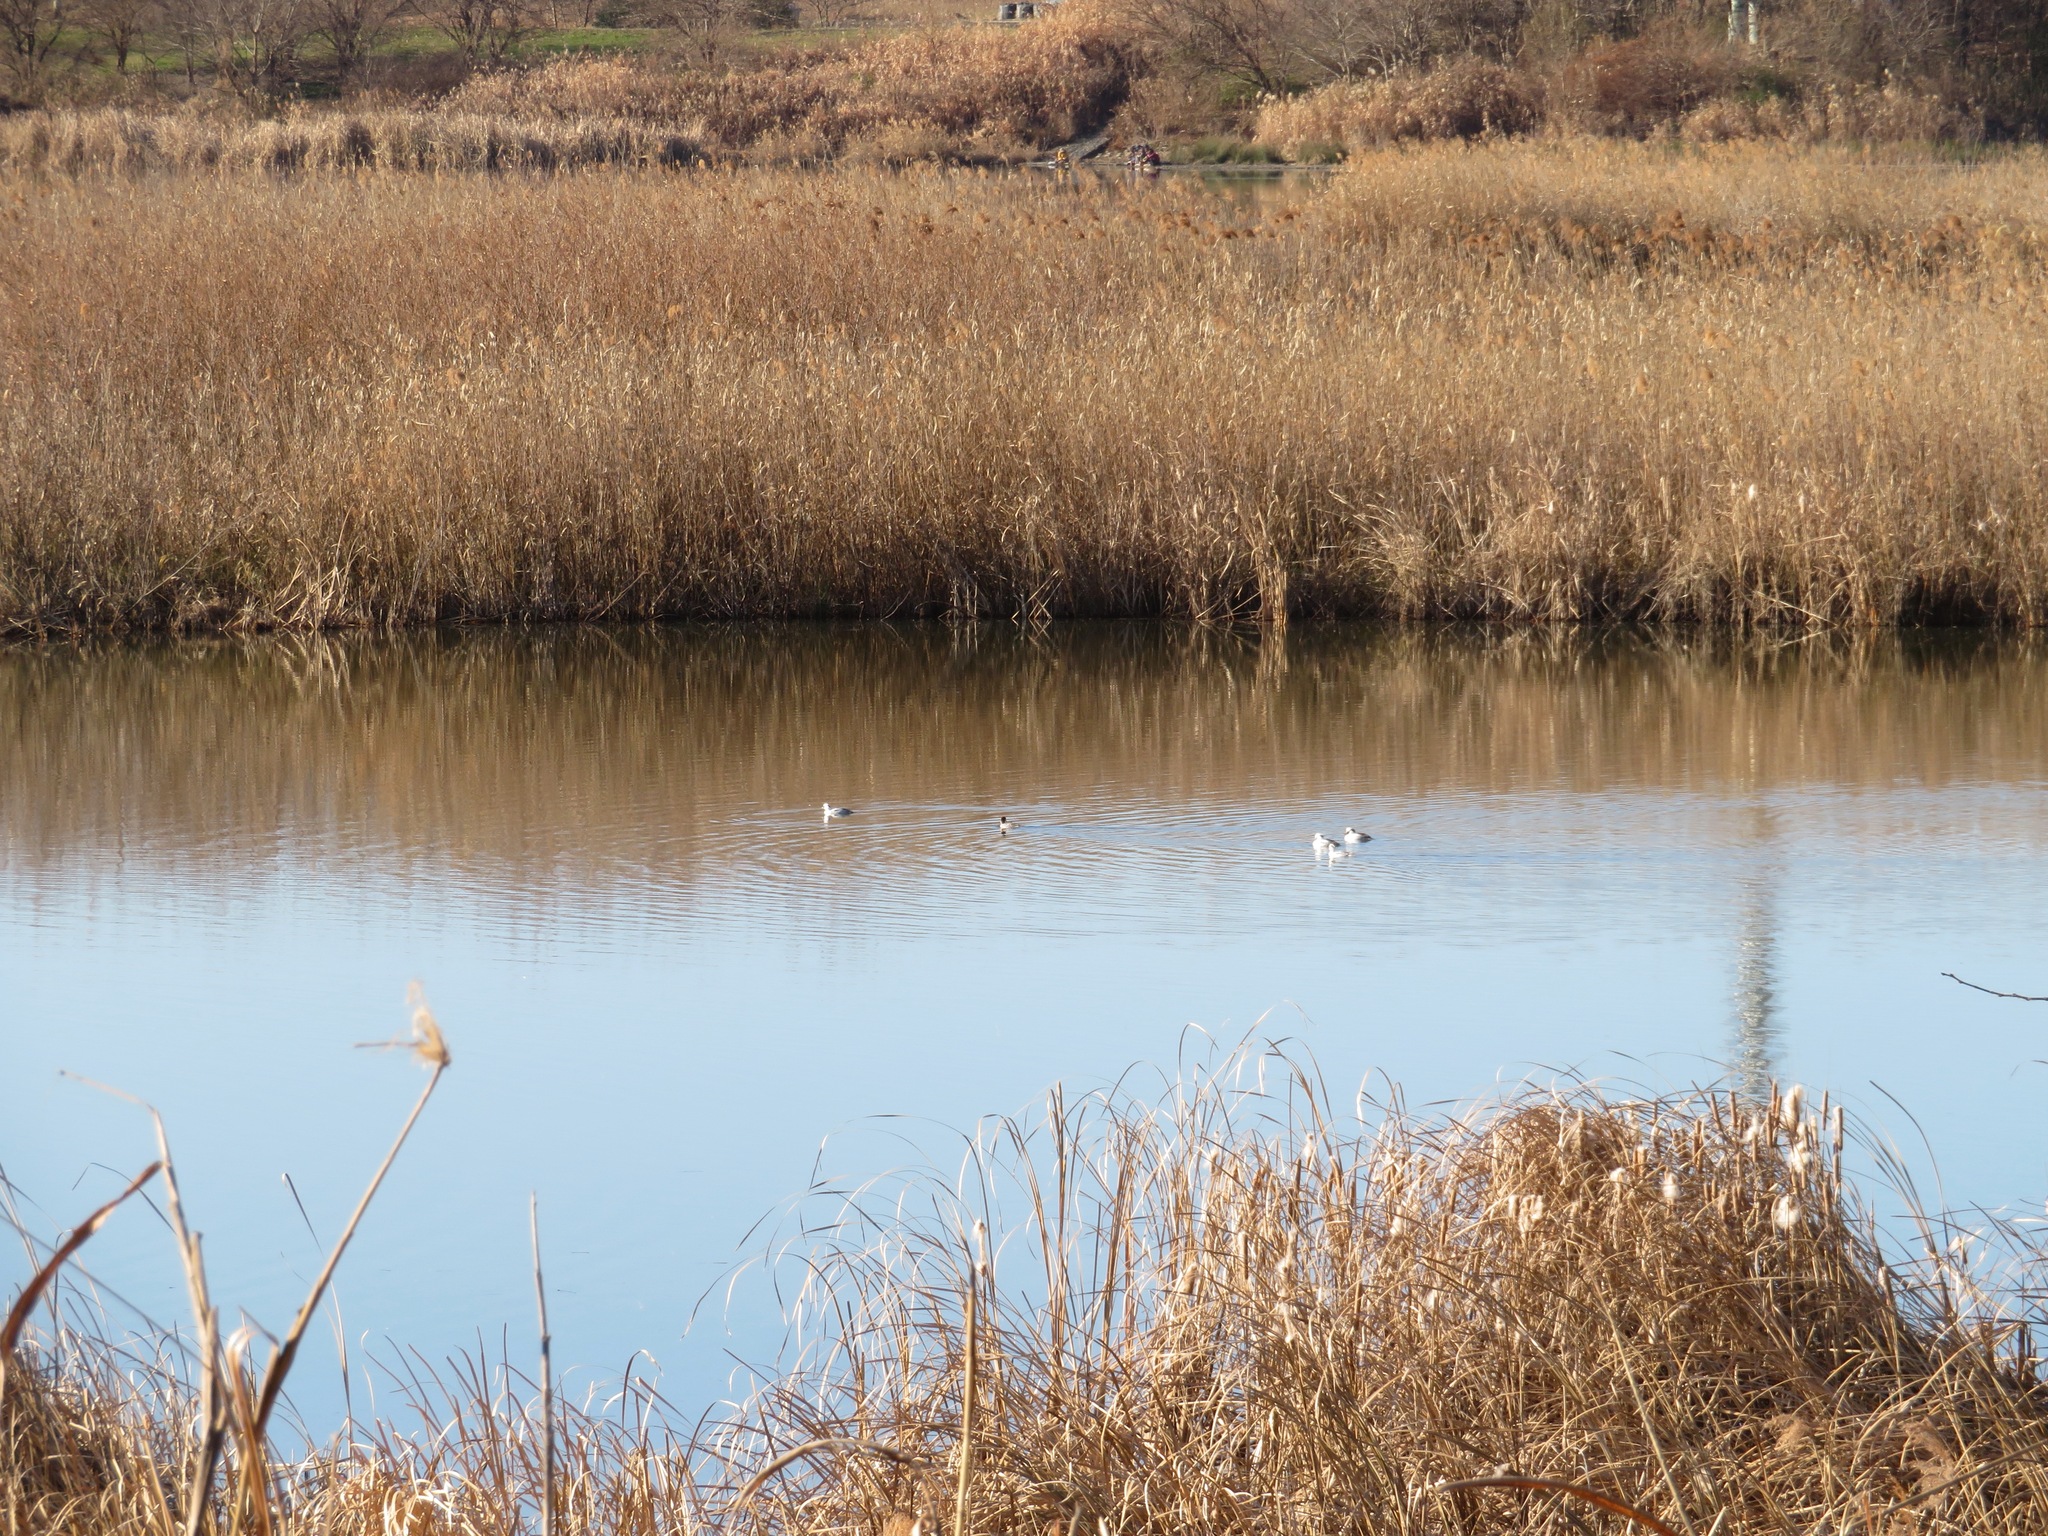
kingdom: Animalia
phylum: Chordata
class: Aves
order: Anseriformes
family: Anatidae
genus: Mergellus
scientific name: Mergellus albellus
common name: Smew
